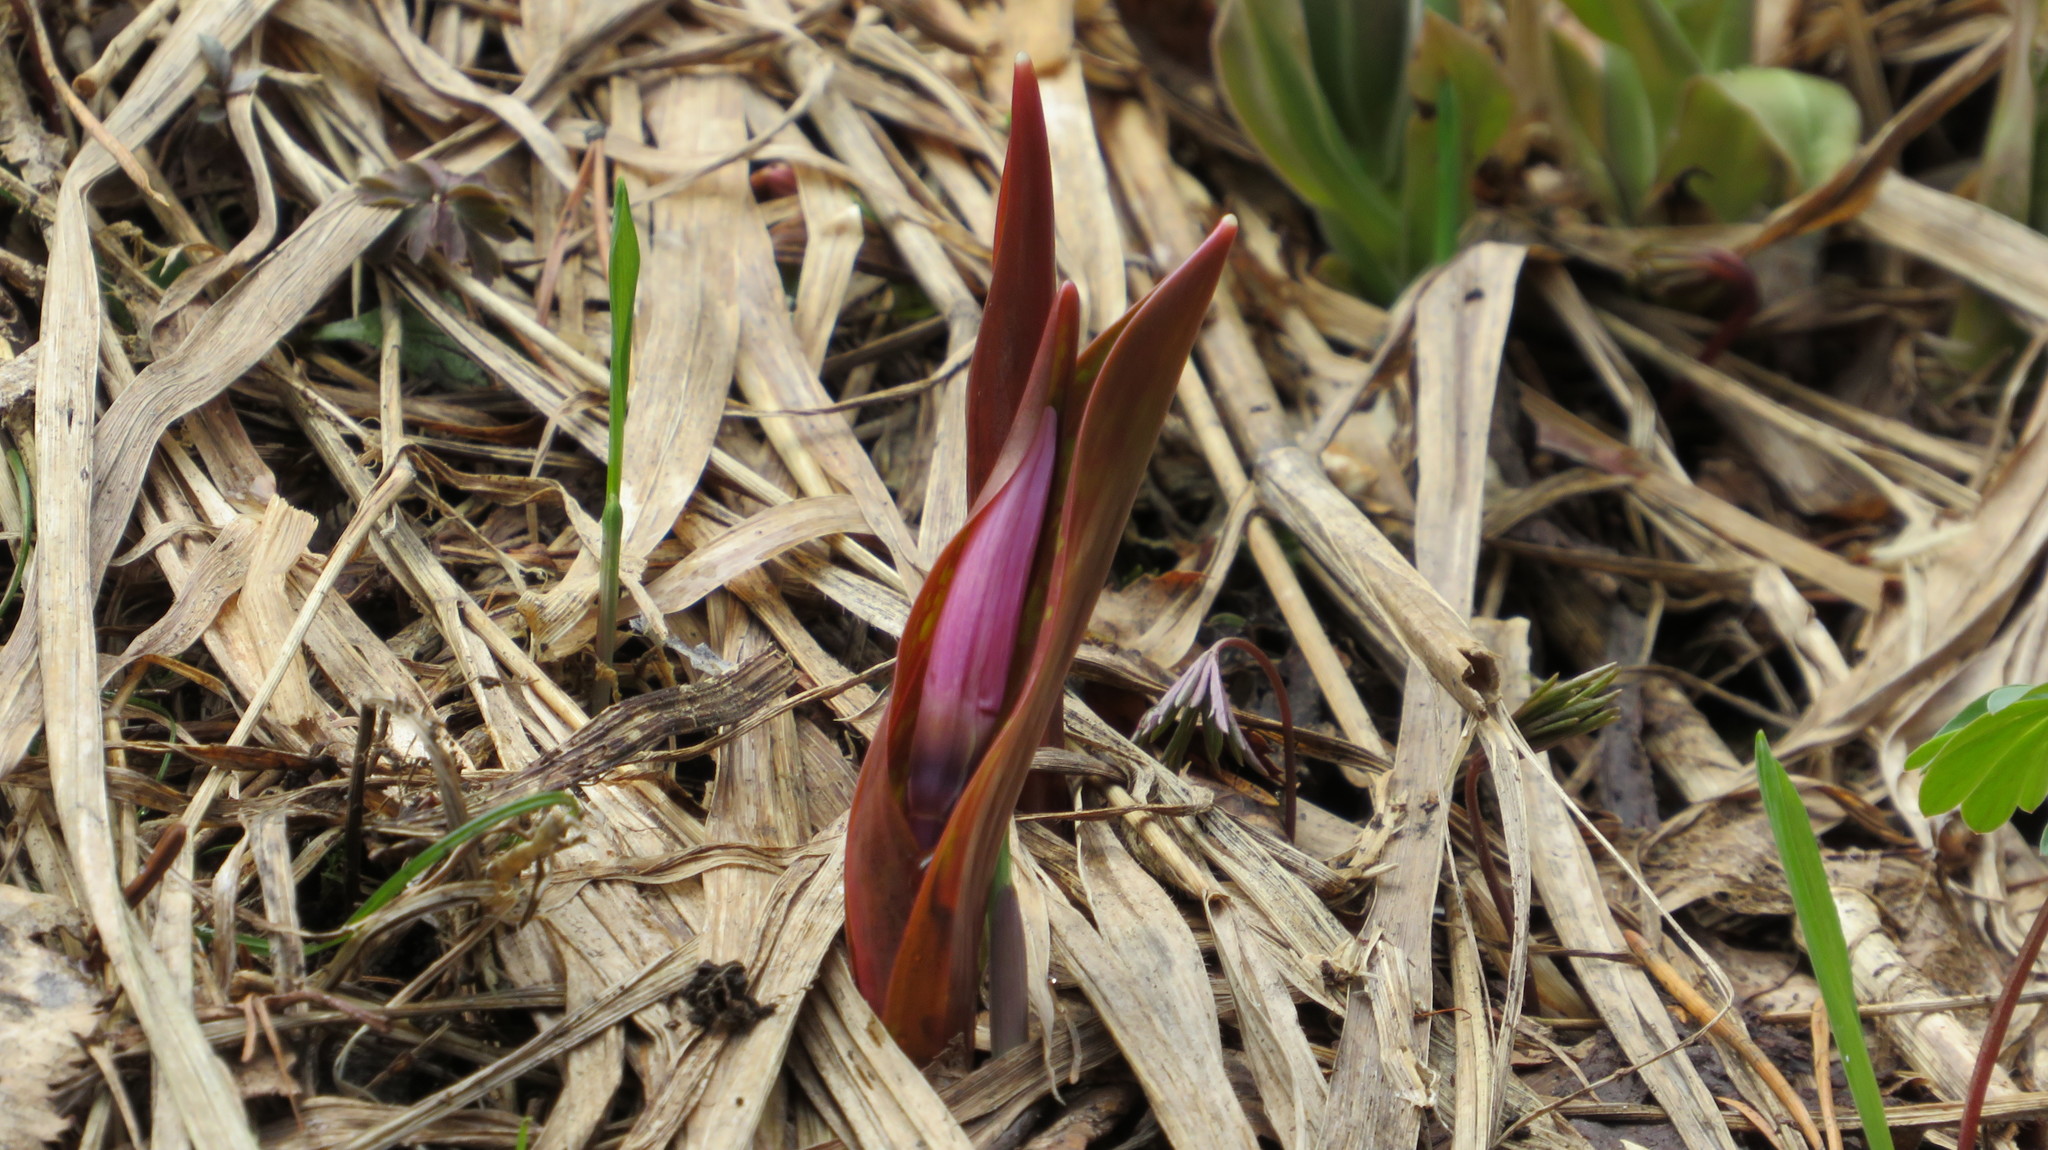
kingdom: Plantae
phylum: Tracheophyta
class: Liliopsida
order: Liliales
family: Liliaceae
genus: Erythronium
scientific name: Erythronium sibiricum
